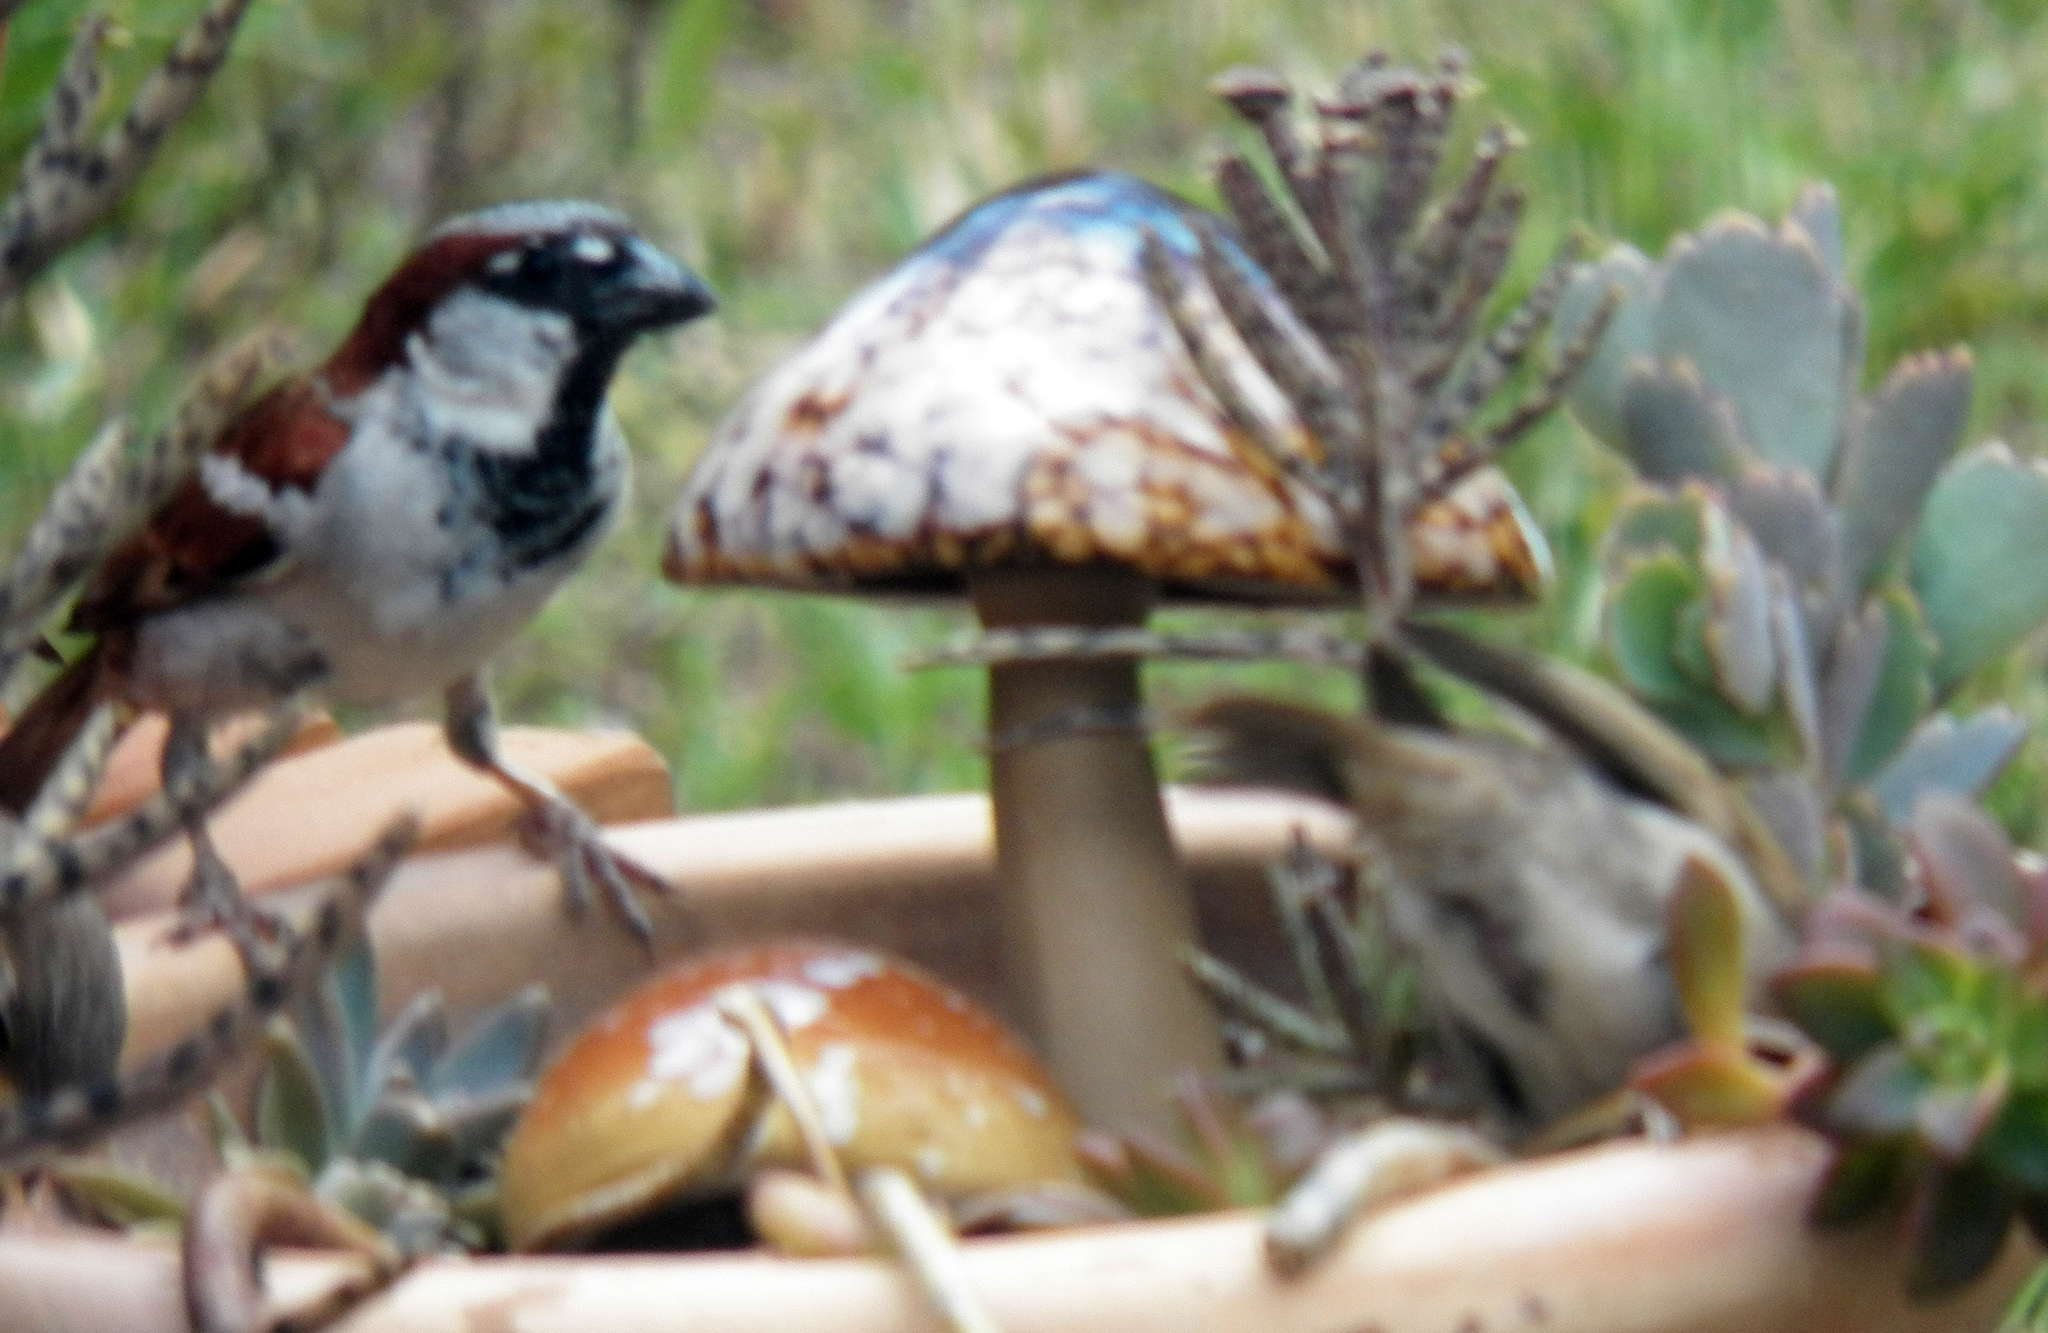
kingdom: Animalia
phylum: Chordata
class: Aves
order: Passeriformes
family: Passeridae
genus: Passer
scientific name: Passer domesticus
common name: House sparrow
